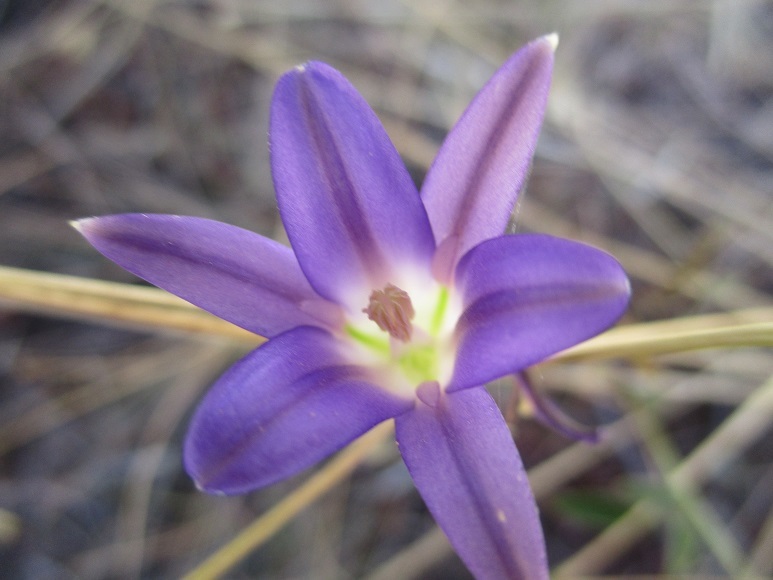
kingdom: Plantae
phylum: Tracheophyta
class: Liliopsida
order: Asparagales
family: Asparagaceae
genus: Brodiaea
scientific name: Brodiaea elegans
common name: Elegant cluster-lily
